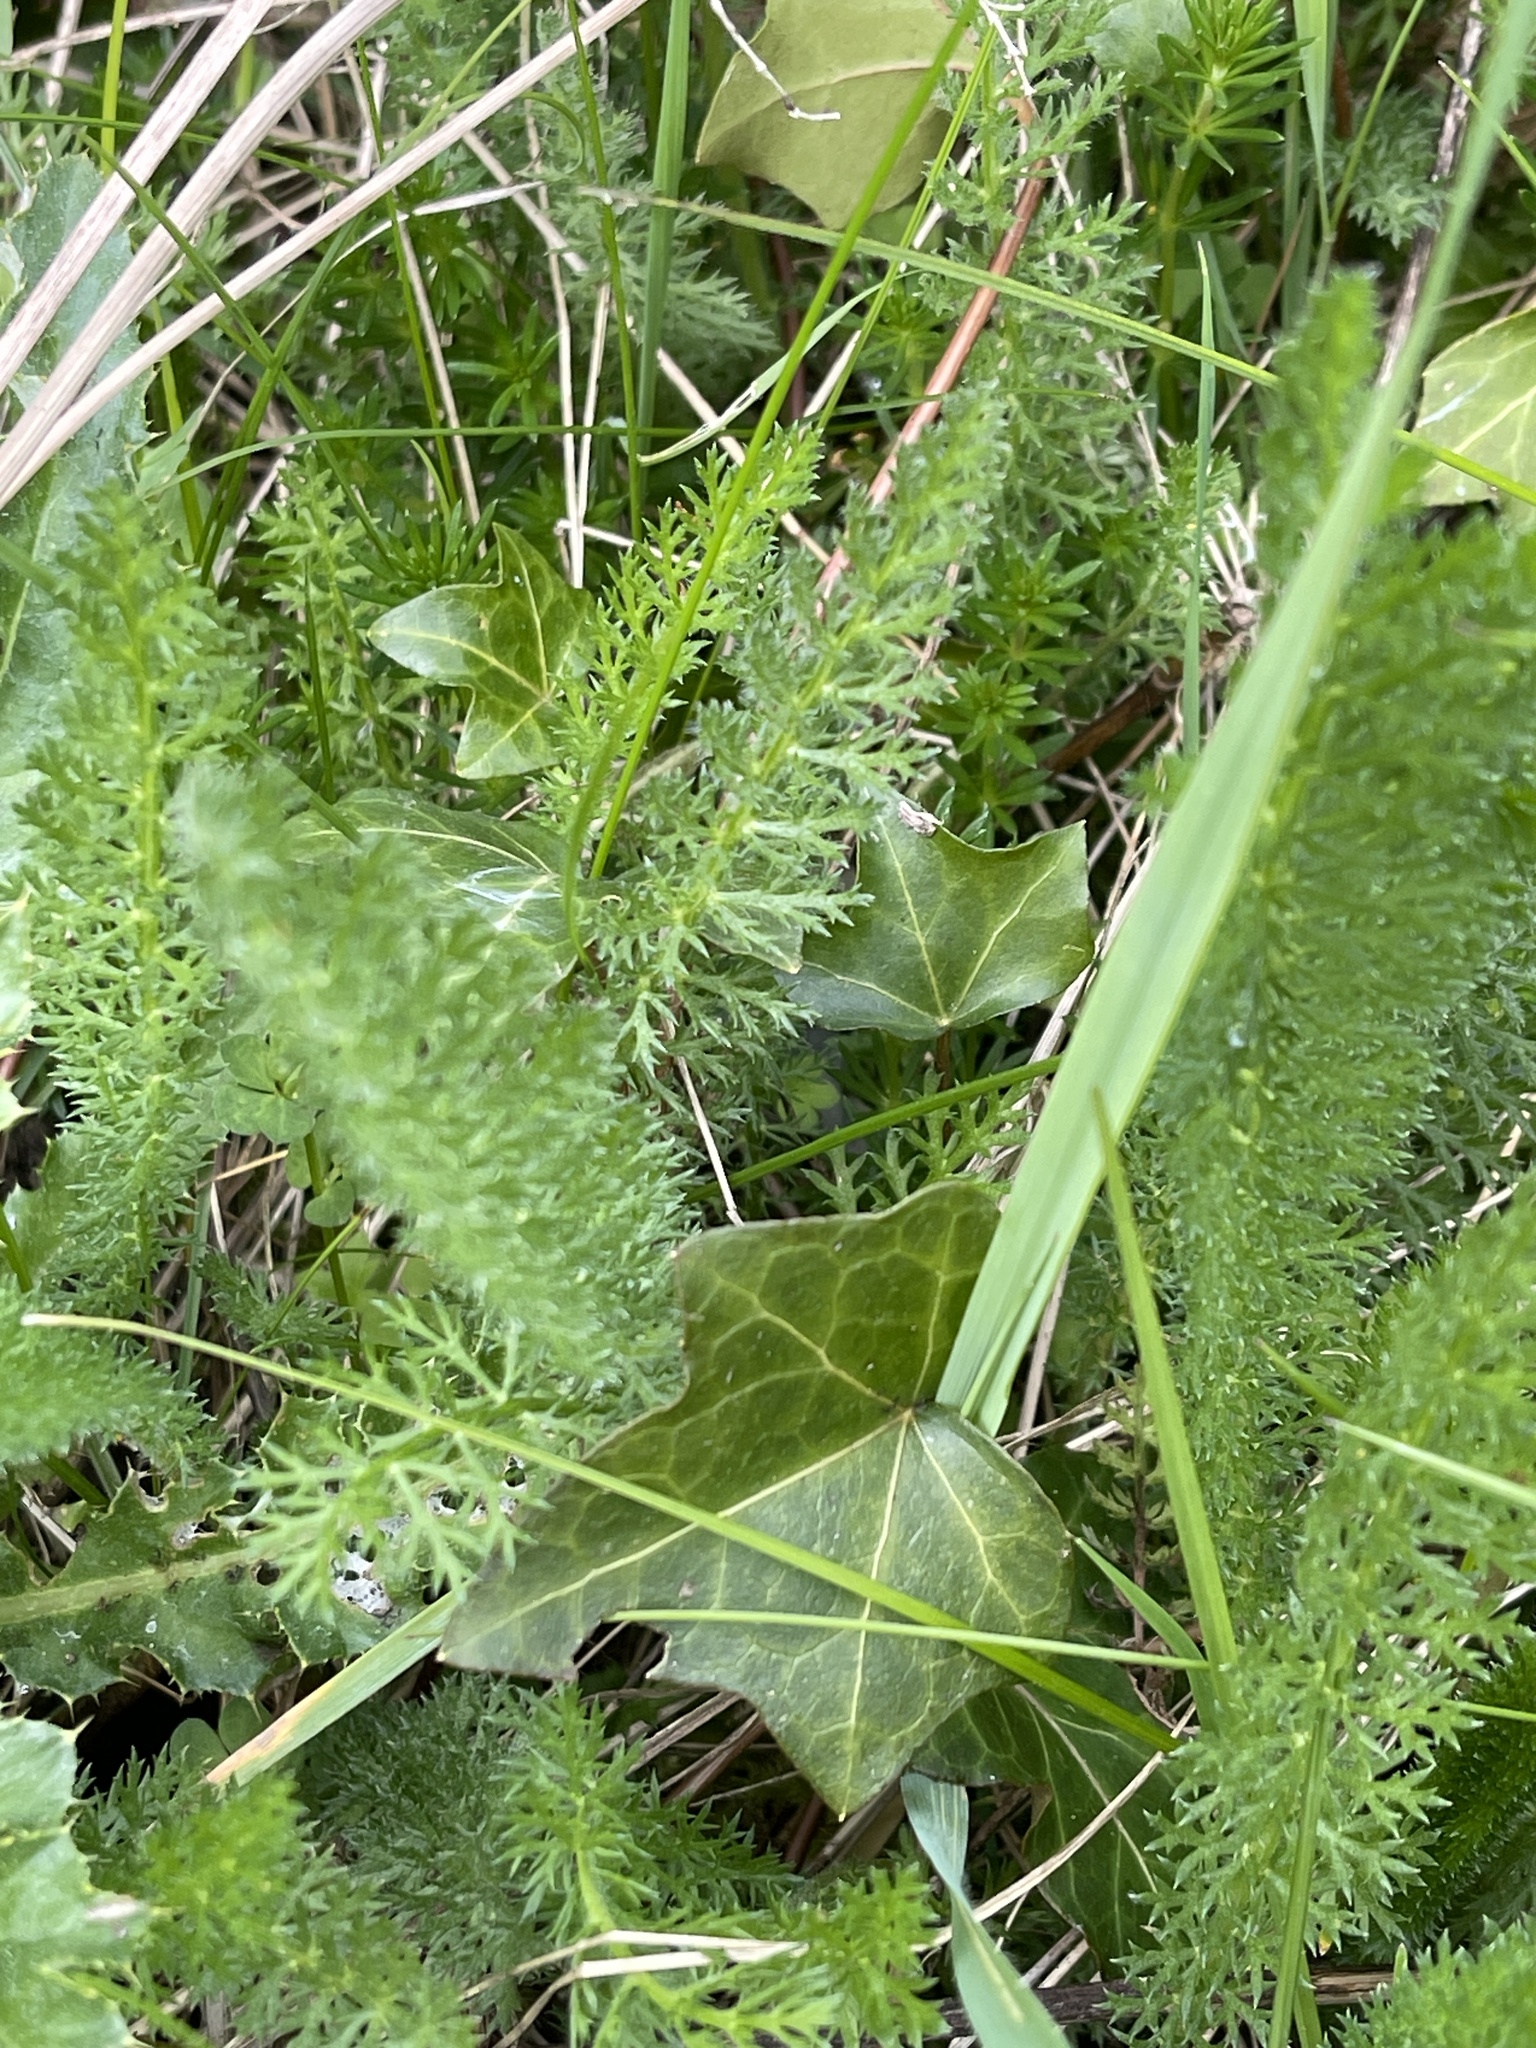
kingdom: Plantae
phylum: Tracheophyta
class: Magnoliopsida
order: Asterales
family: Asteraceae
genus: Achillea
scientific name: Achillea millefolium
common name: Yarrow
